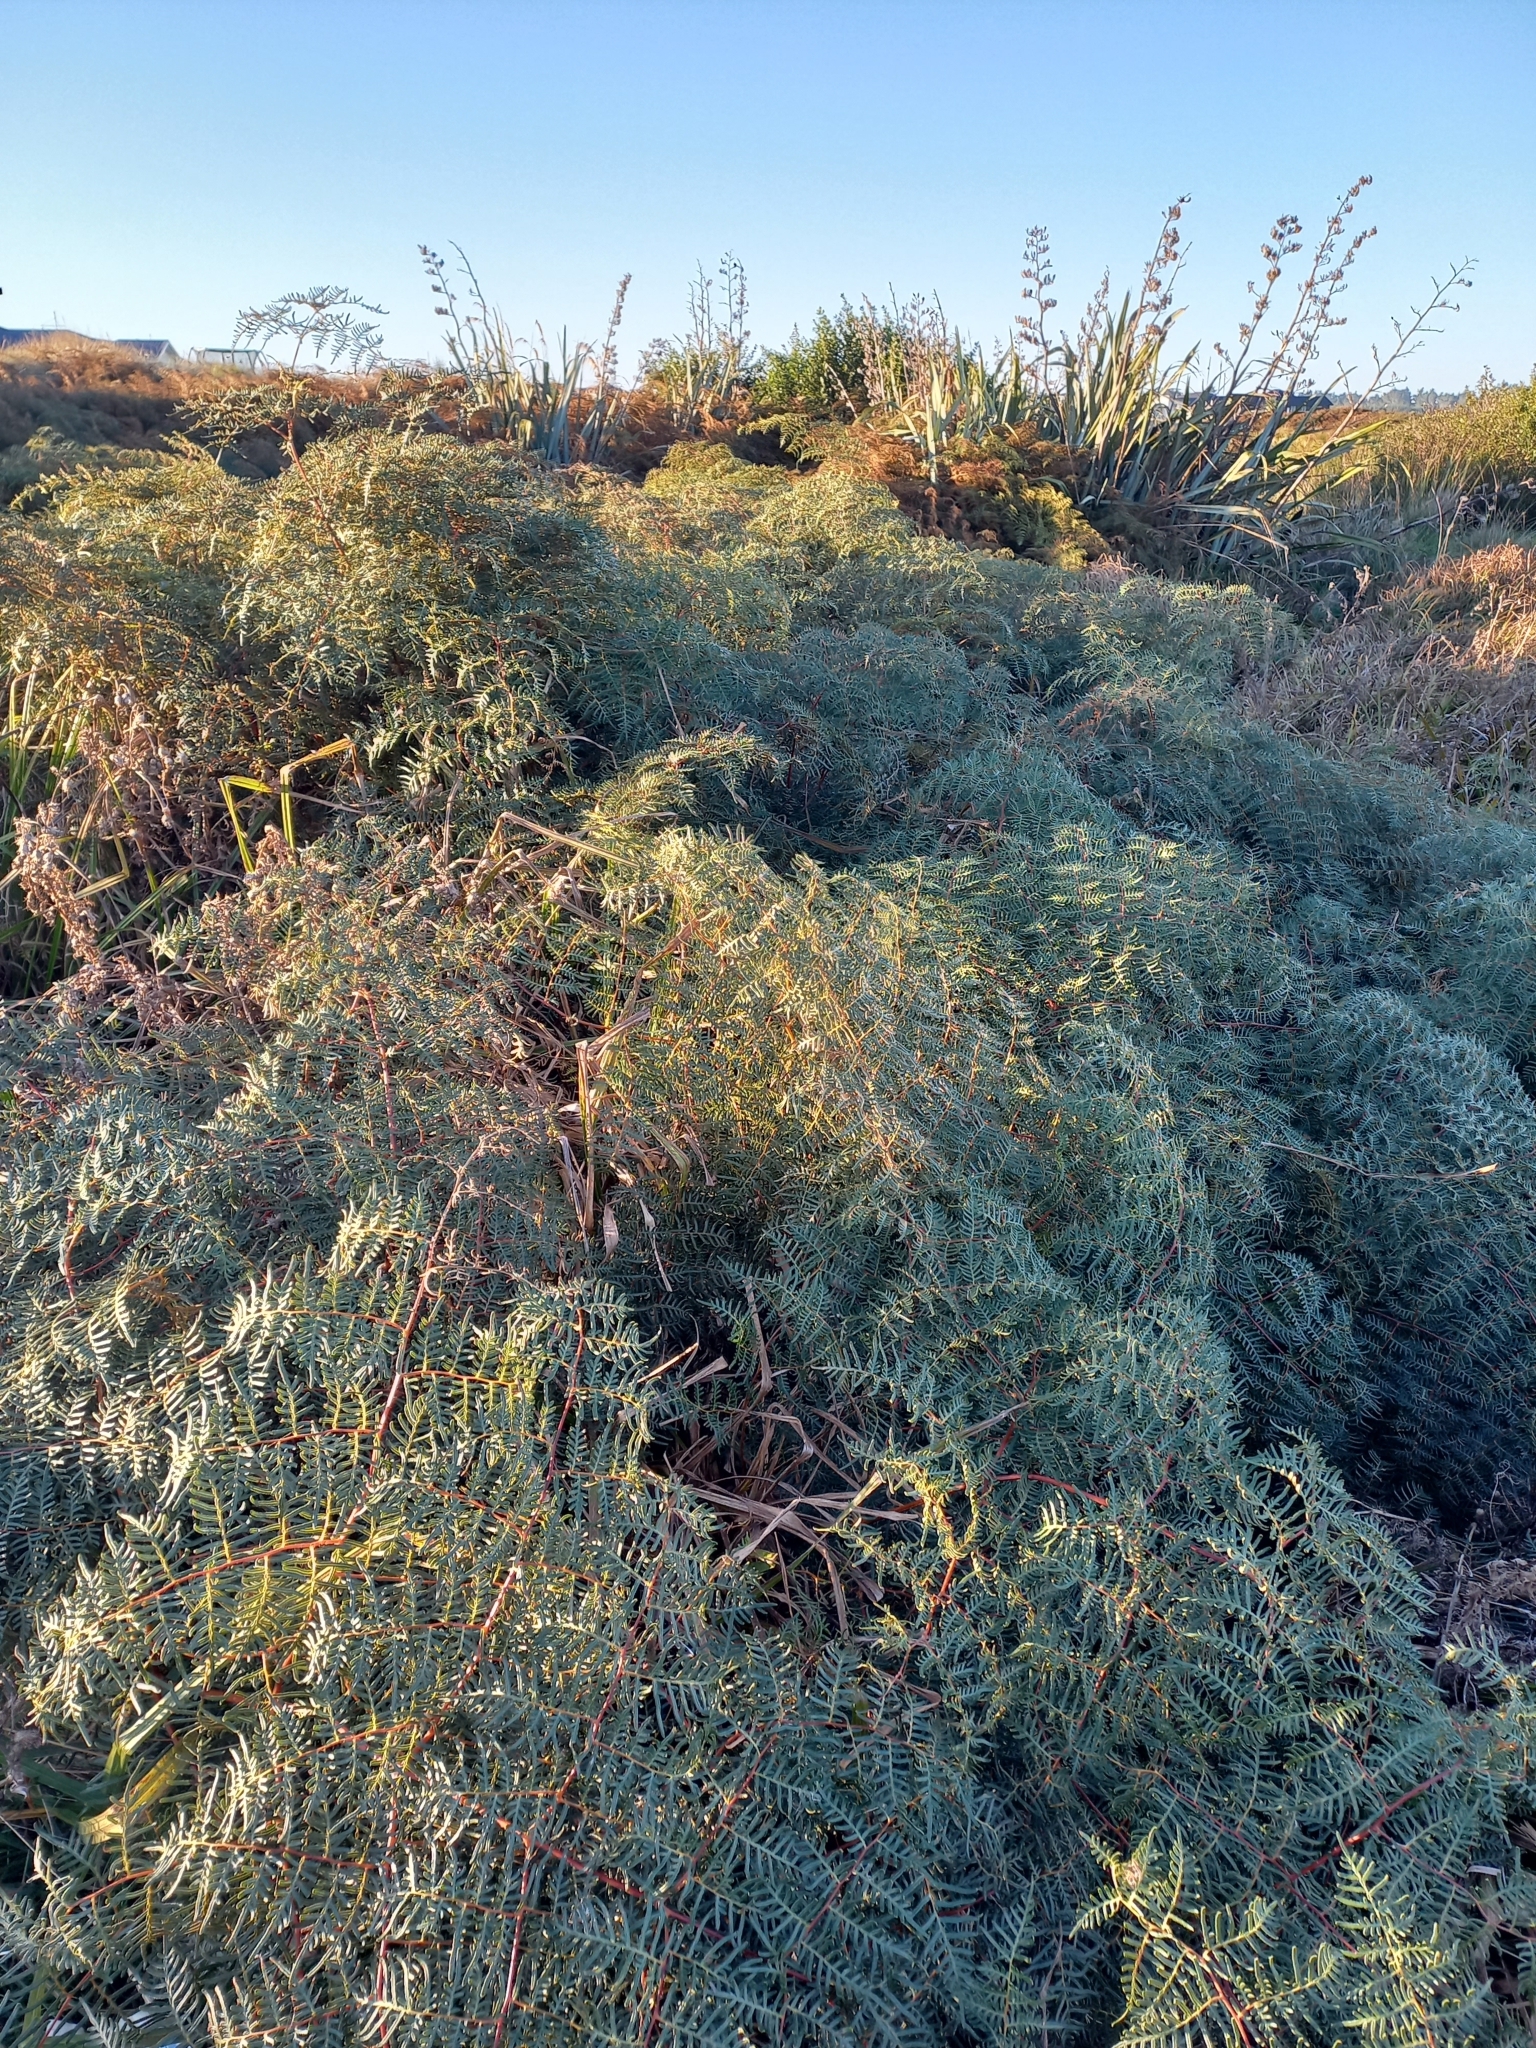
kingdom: Plantae
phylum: Tracheophyta
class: Polypodiopsida
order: Polypodiales
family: Dennstaedtiaceae
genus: Pteridium
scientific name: Pteridium esculentum
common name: Bracken fern
